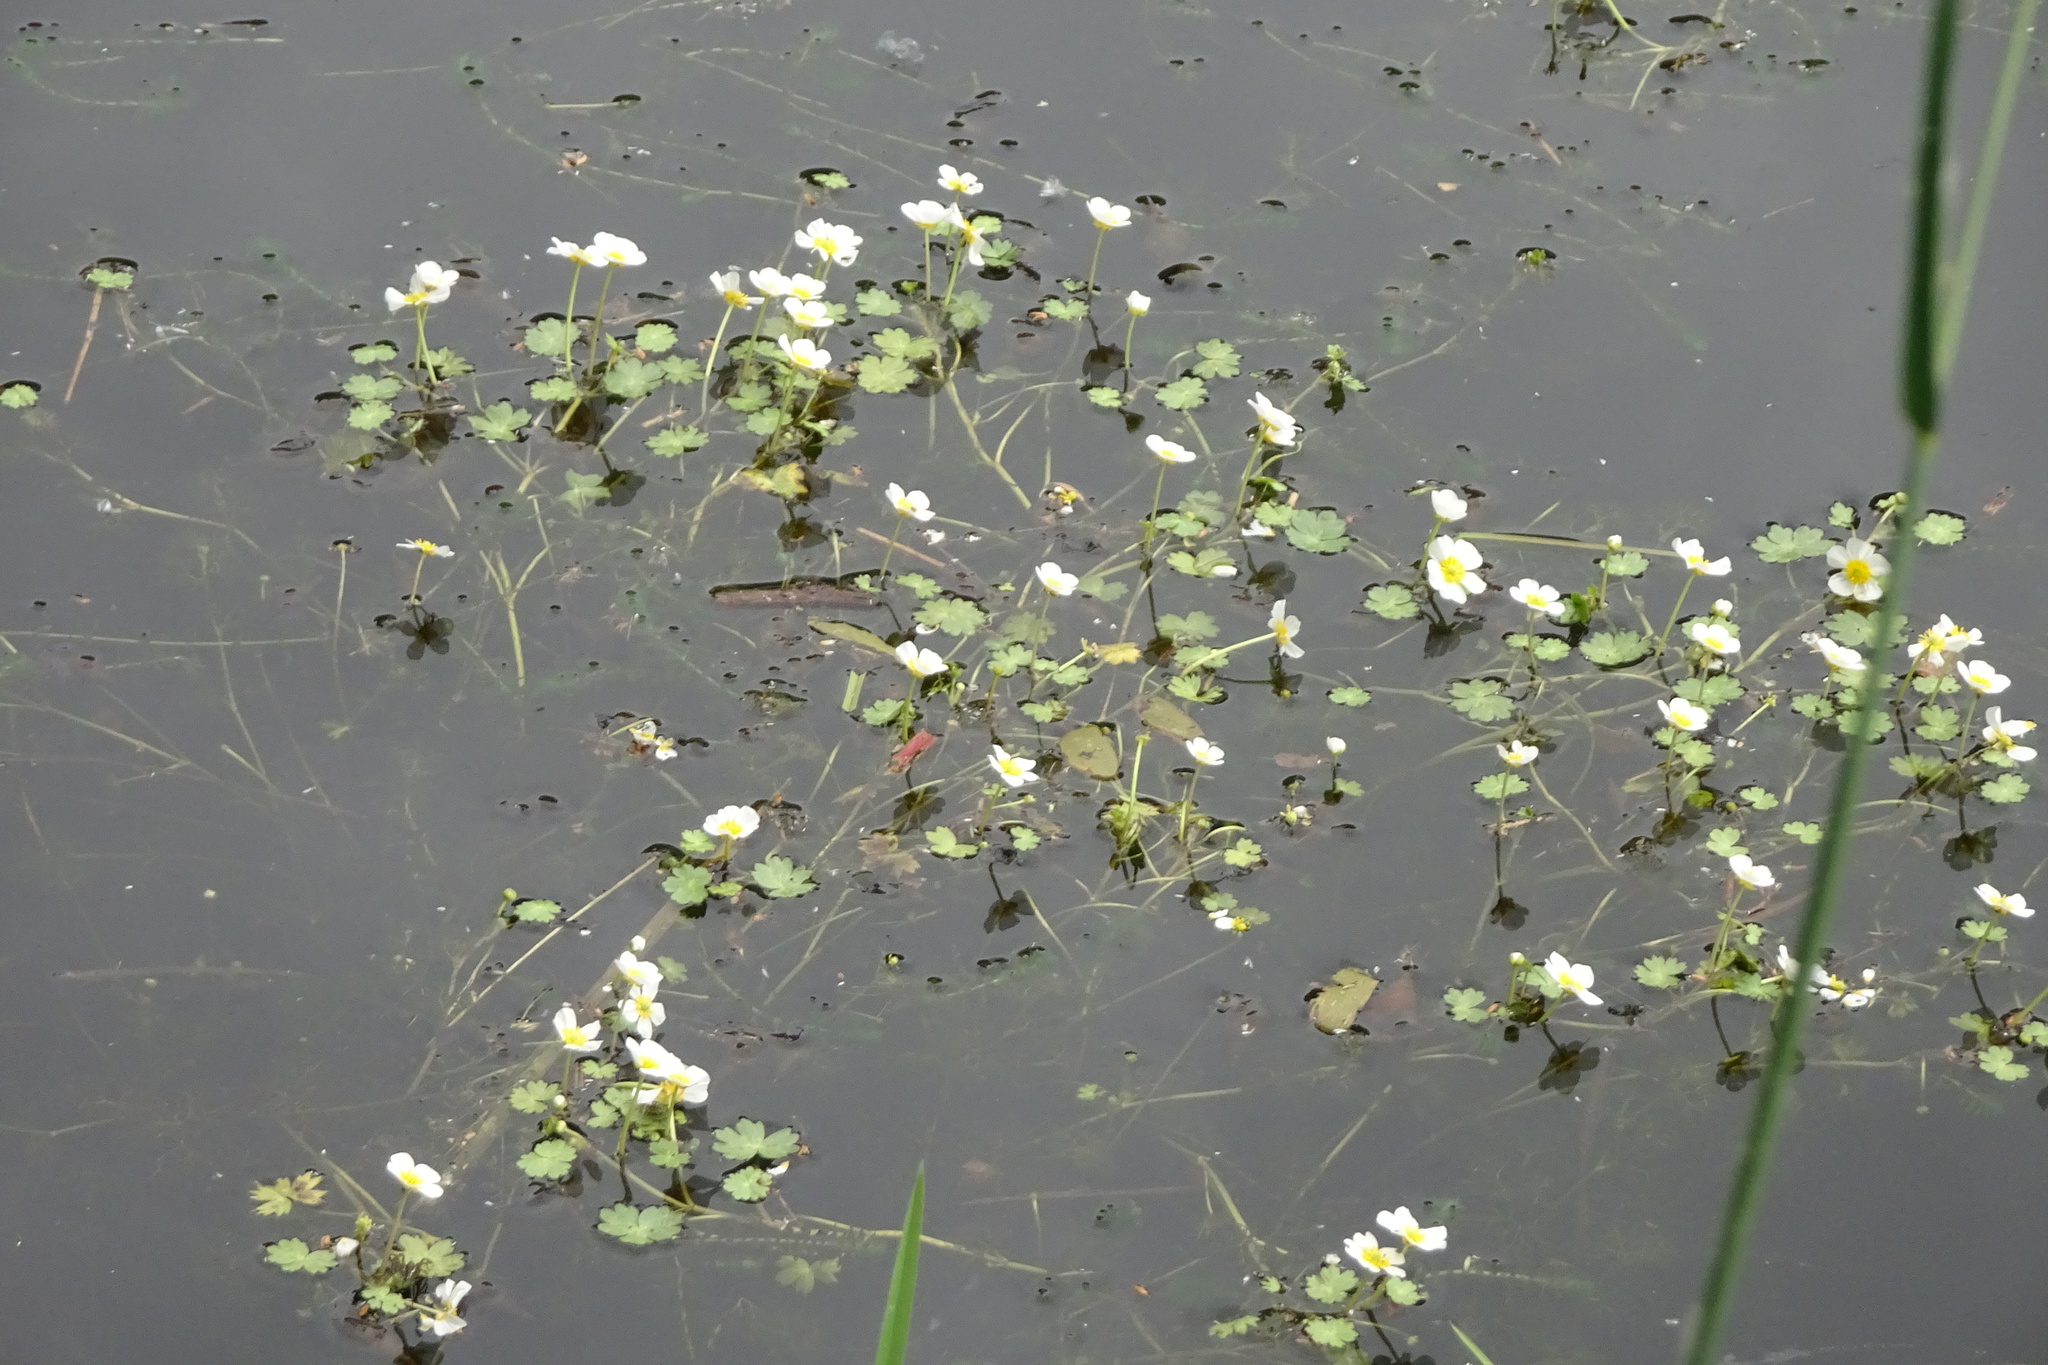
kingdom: Plantae
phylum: Tracheophyta
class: Magnoliopsida
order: Ranunculales
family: Ranunculaceae
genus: Ranunculus
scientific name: Ranunculus aquatilis
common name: Common water-crowfoot
